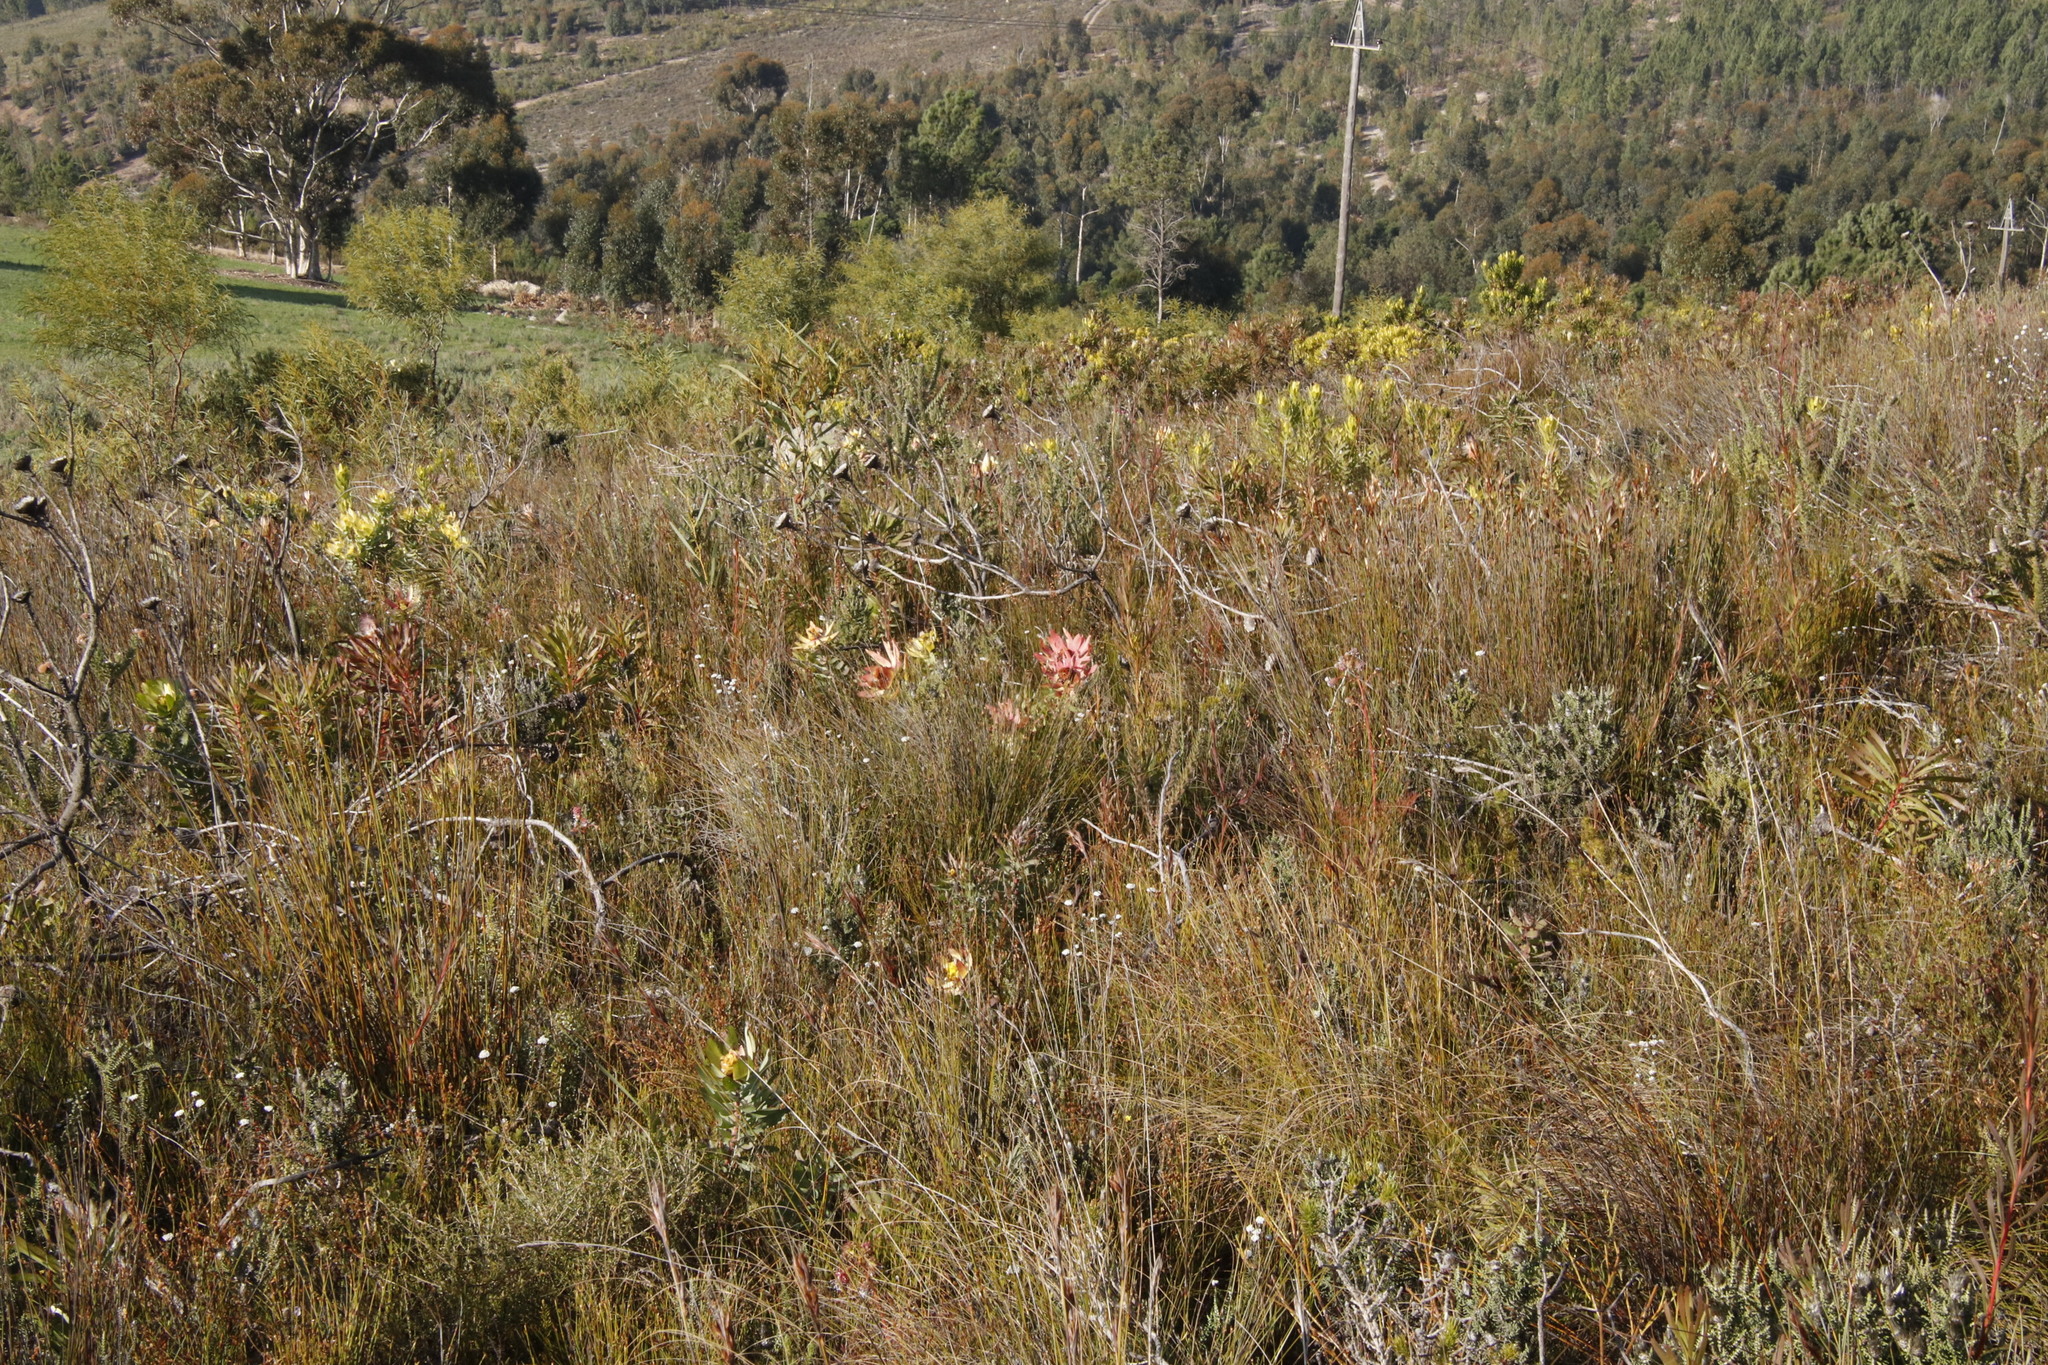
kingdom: Plantae
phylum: Tracheophyta
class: Magnoliopsida
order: Proteales
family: Proteaceae
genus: Leucadendron
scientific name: Leucadendron tinctum
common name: Spicy conebush
